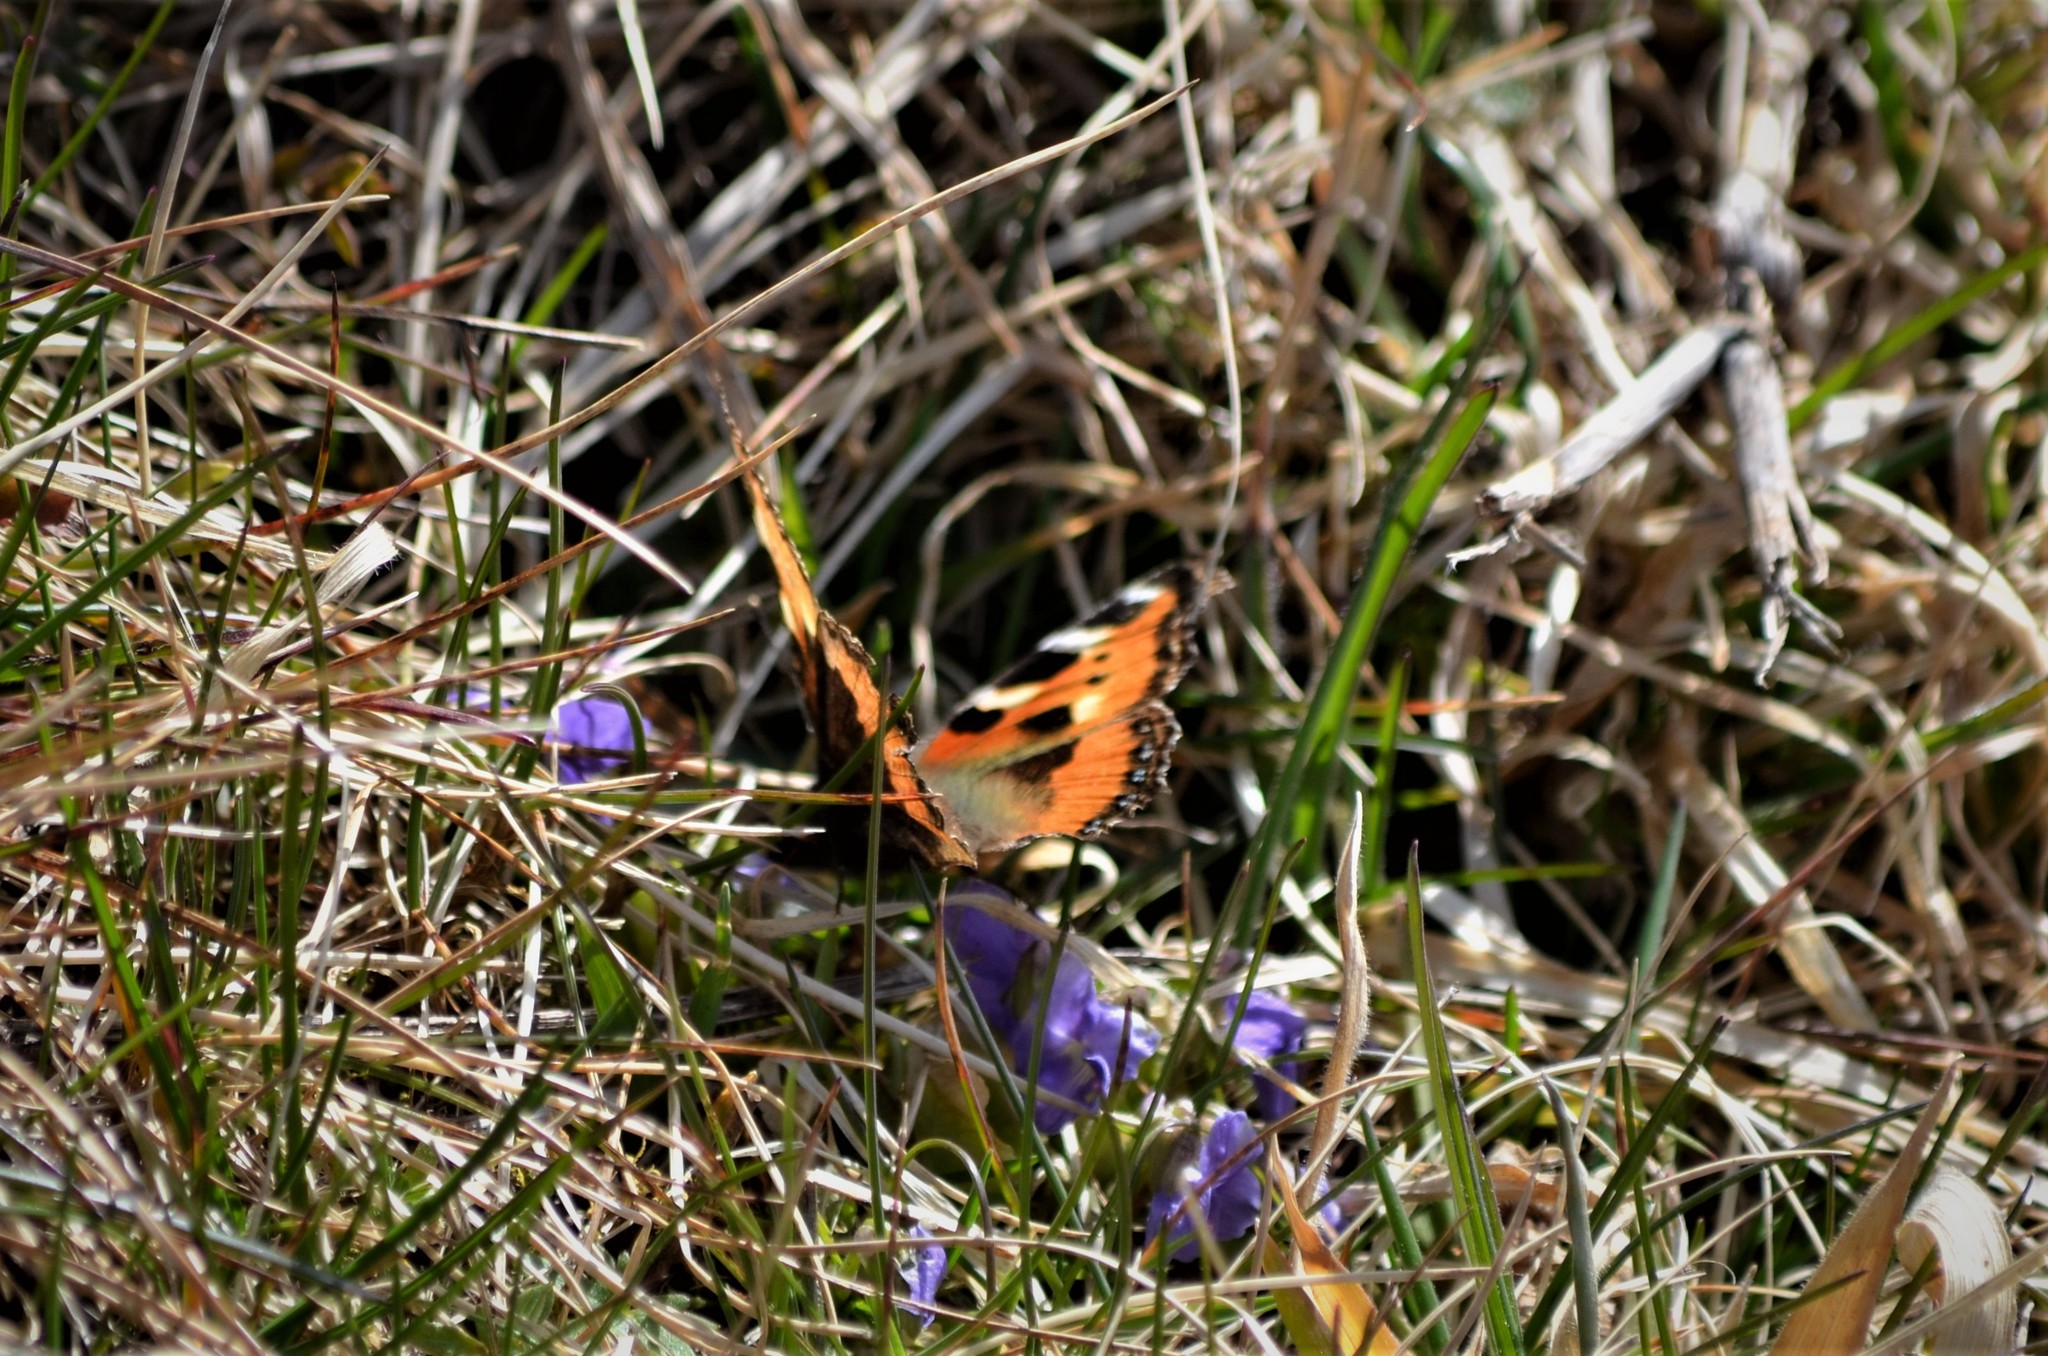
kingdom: Animalia
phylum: Arthropoda
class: Insecta
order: Lepidoptera
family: Nymphalidae
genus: Aglais
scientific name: Aglais urticae
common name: Small tortoiseshell
